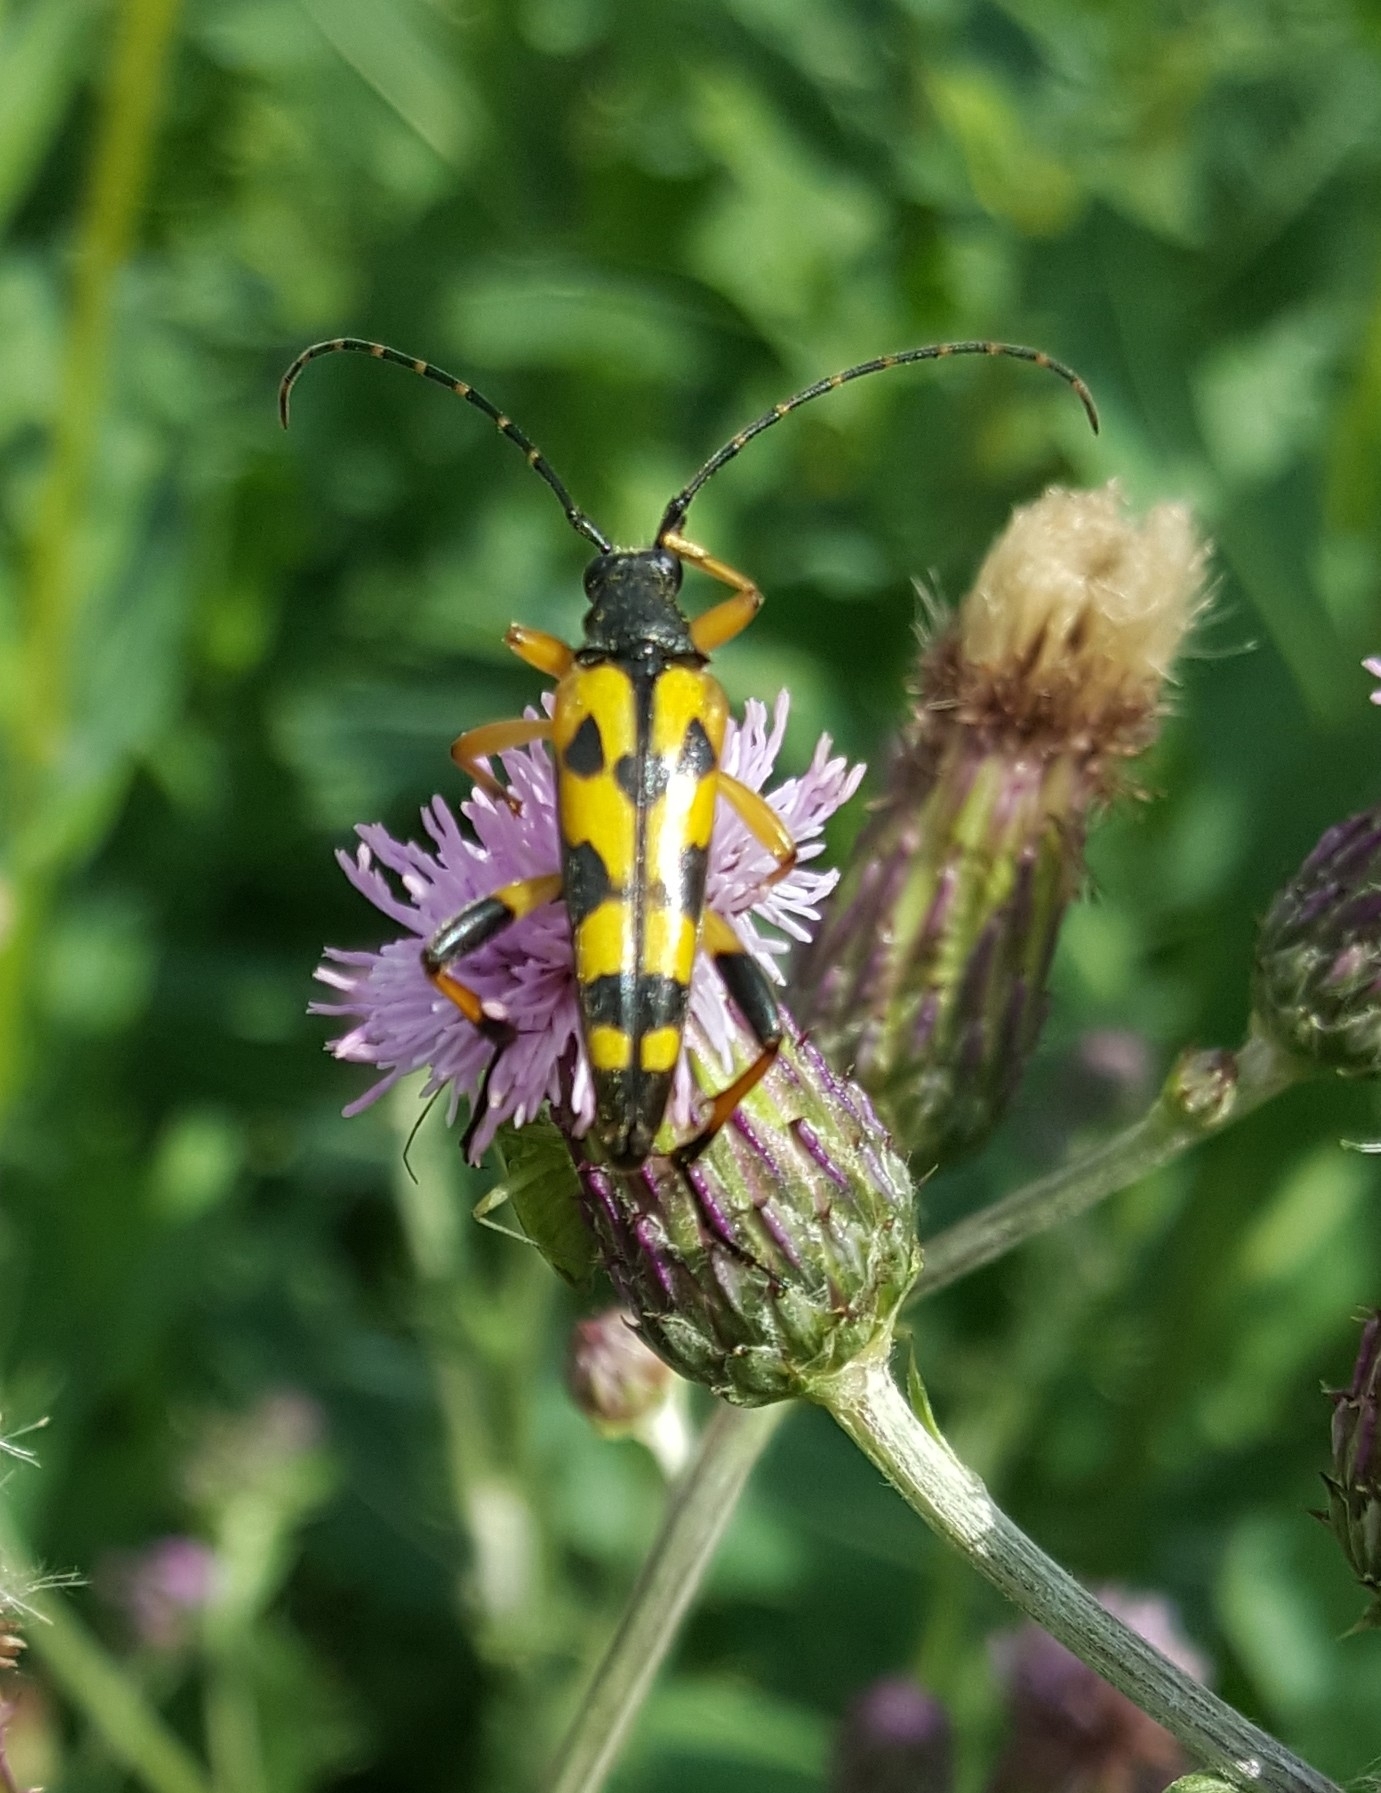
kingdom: Animalia
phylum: Arthropoda
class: Insecta
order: Coleoptera
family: Cerambycidae
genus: Rutpela
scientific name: Rutpela maculata
